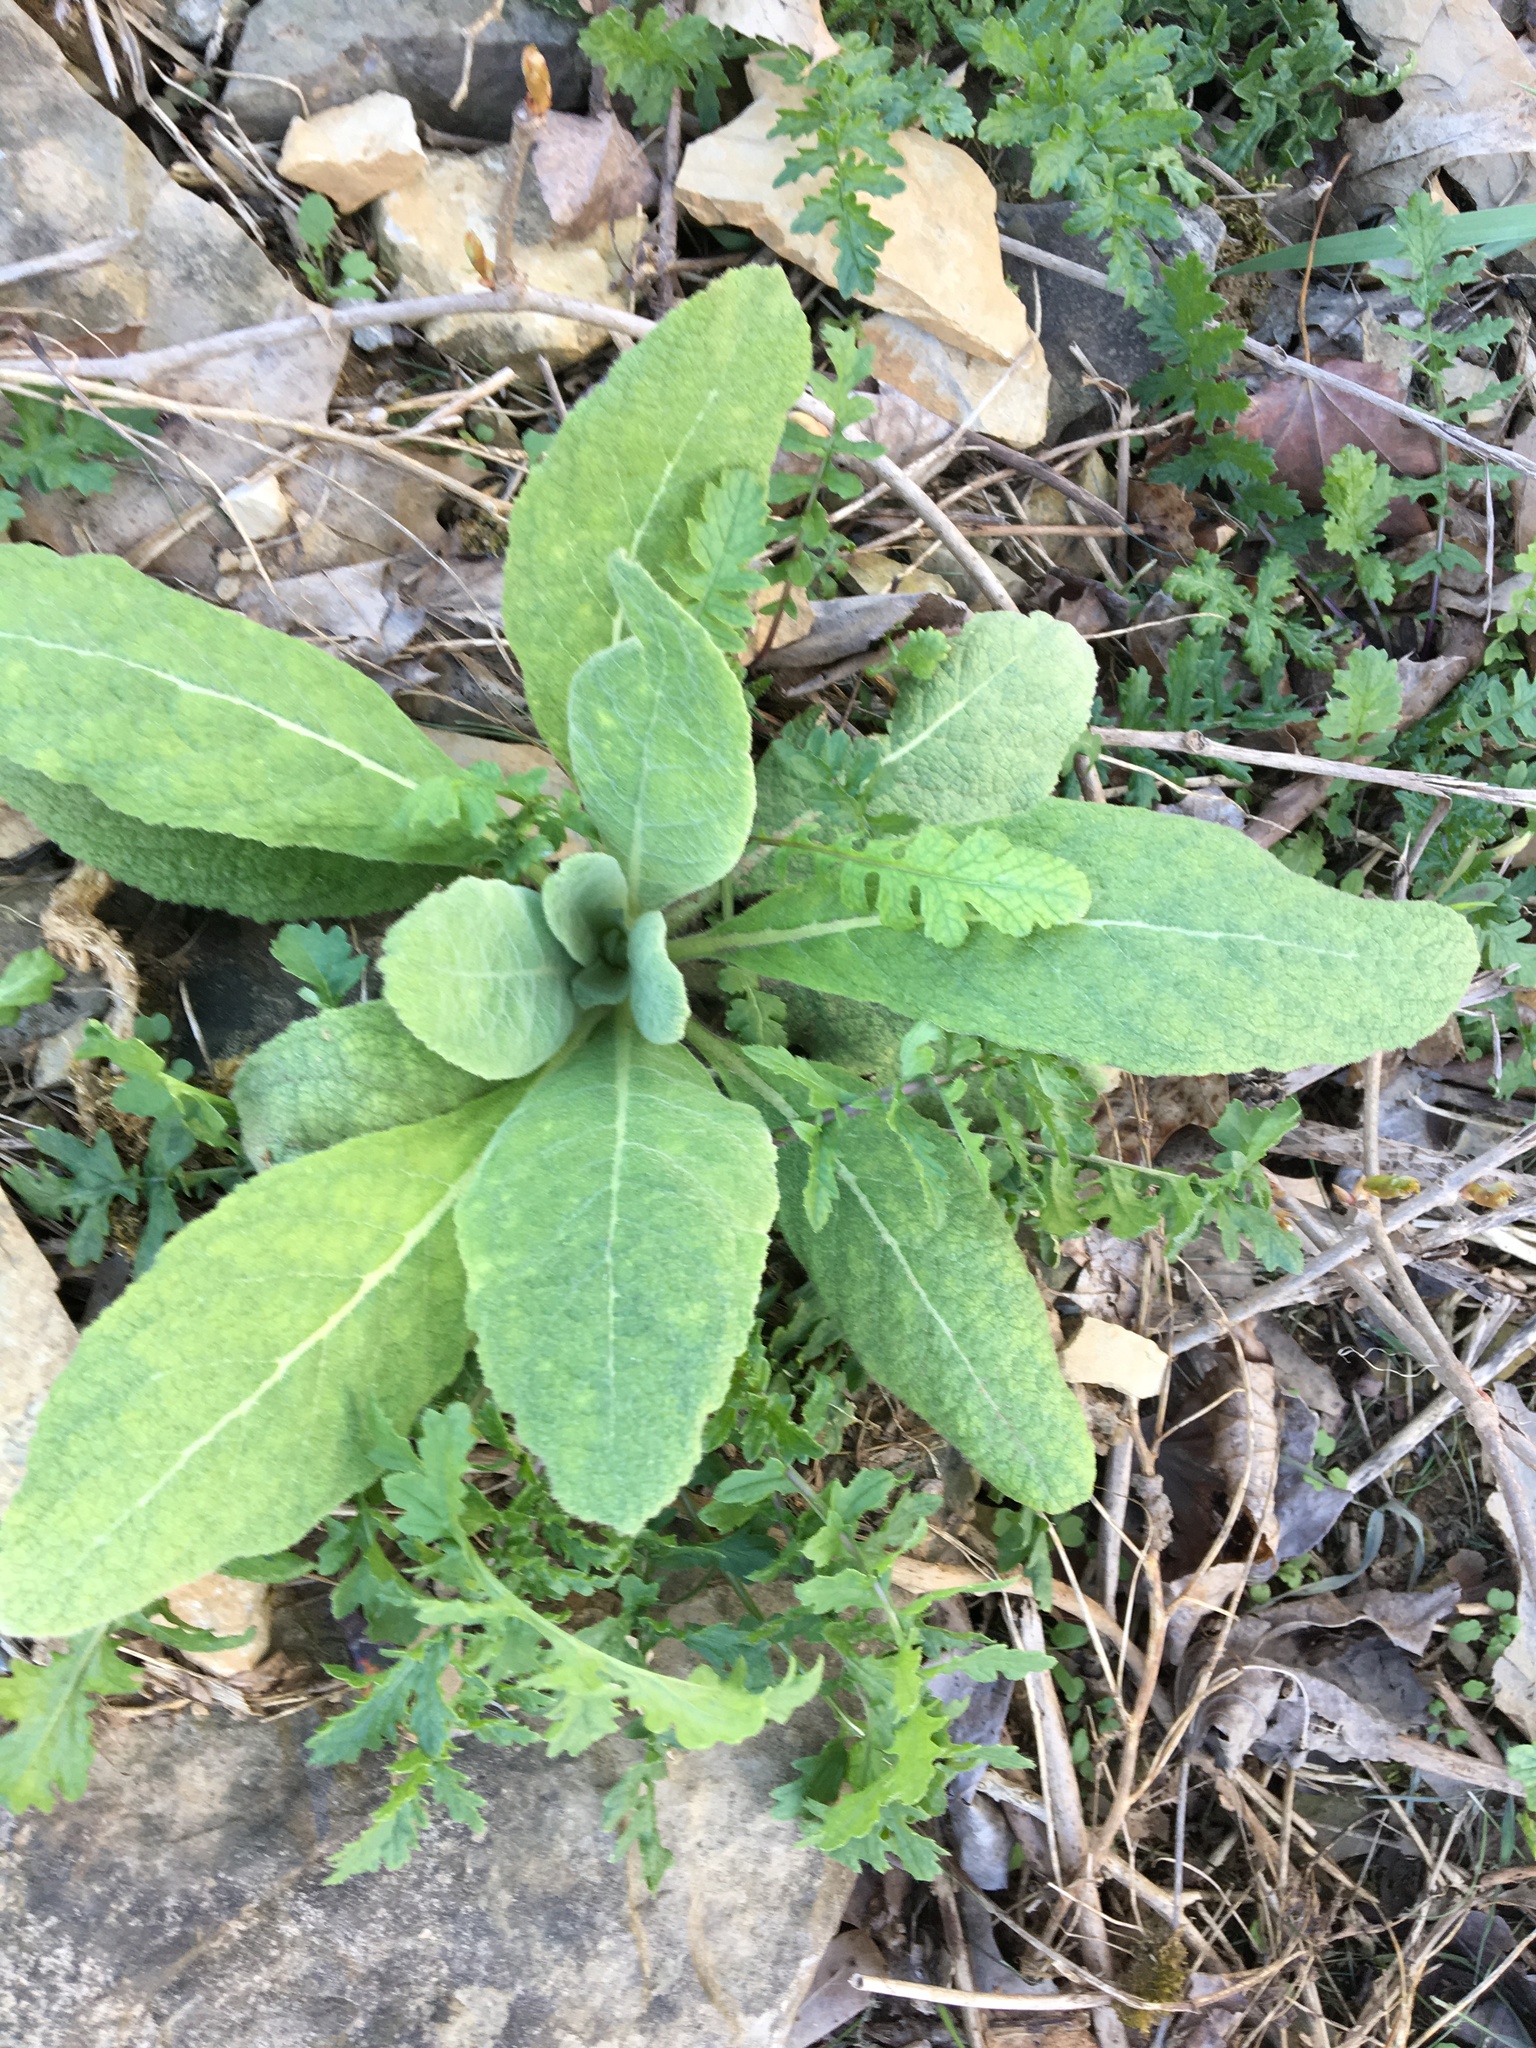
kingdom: Plantae
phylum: Tracheophyta
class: Magnoliopsida
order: Lamiales
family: Scrophulariaceae
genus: Verbascum
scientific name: Verbascum thapsus
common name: Common mullein
